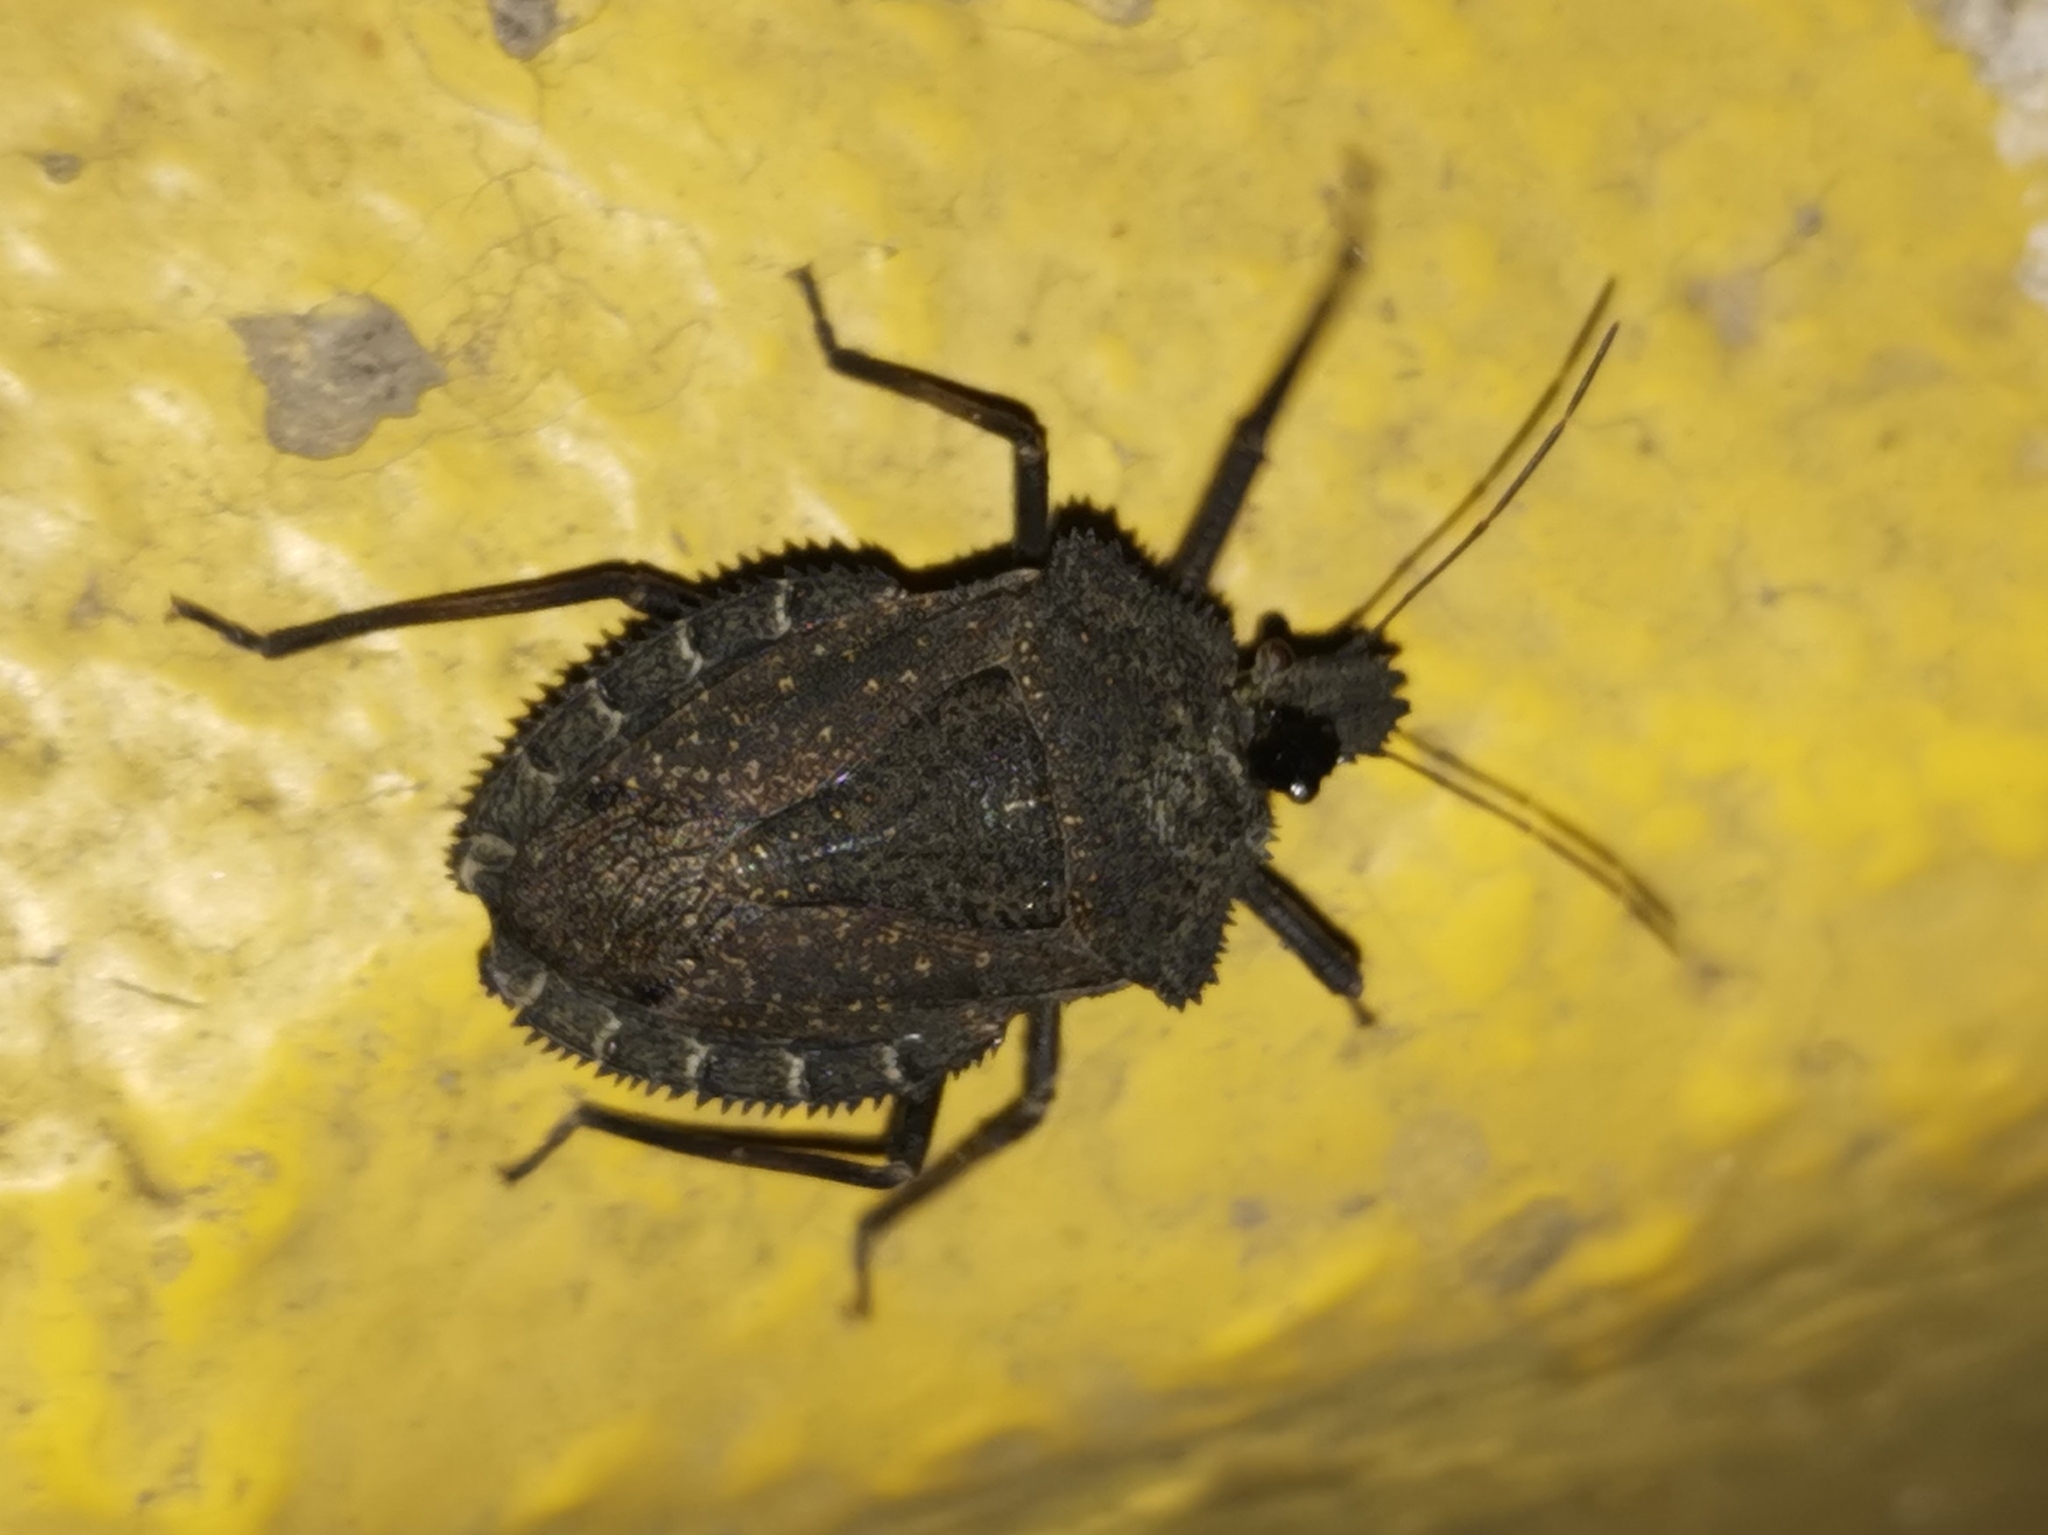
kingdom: Animalia
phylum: Arthropoda
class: Insecta
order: Hemiptera
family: Pentatomidae
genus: Mustha
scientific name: Mustha spinosula
